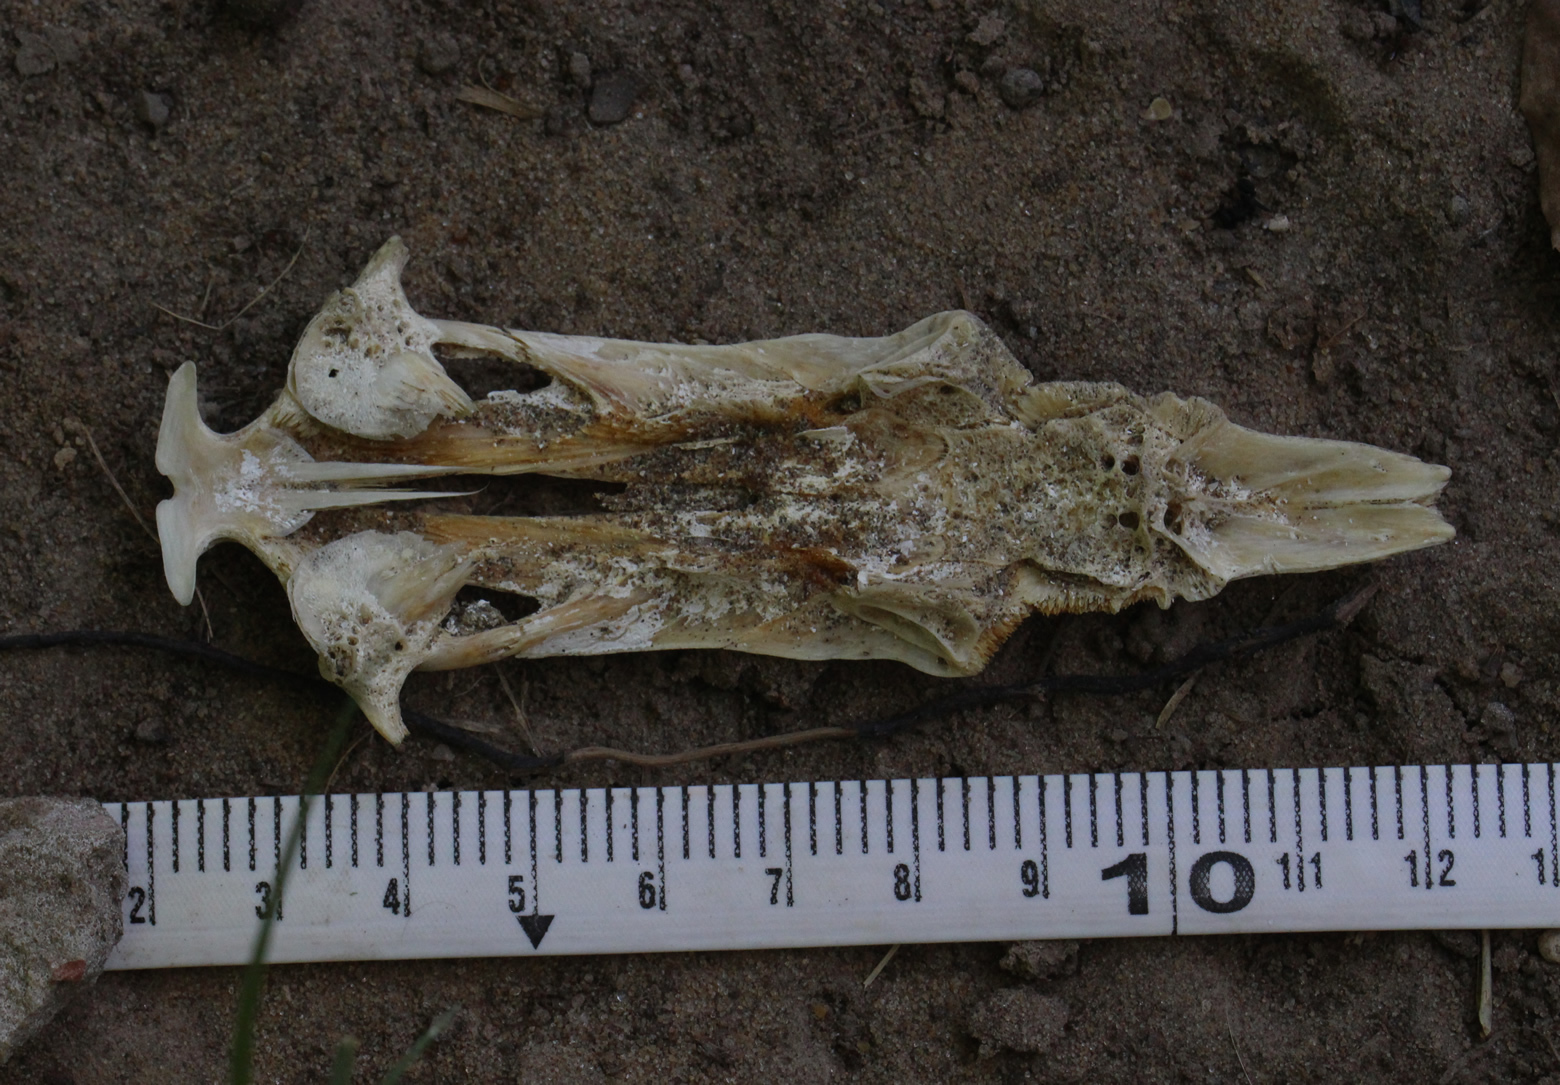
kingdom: Animalia
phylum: Chordata
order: Siluriformes
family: Ariidae
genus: Genidens
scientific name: Genidens barbus
